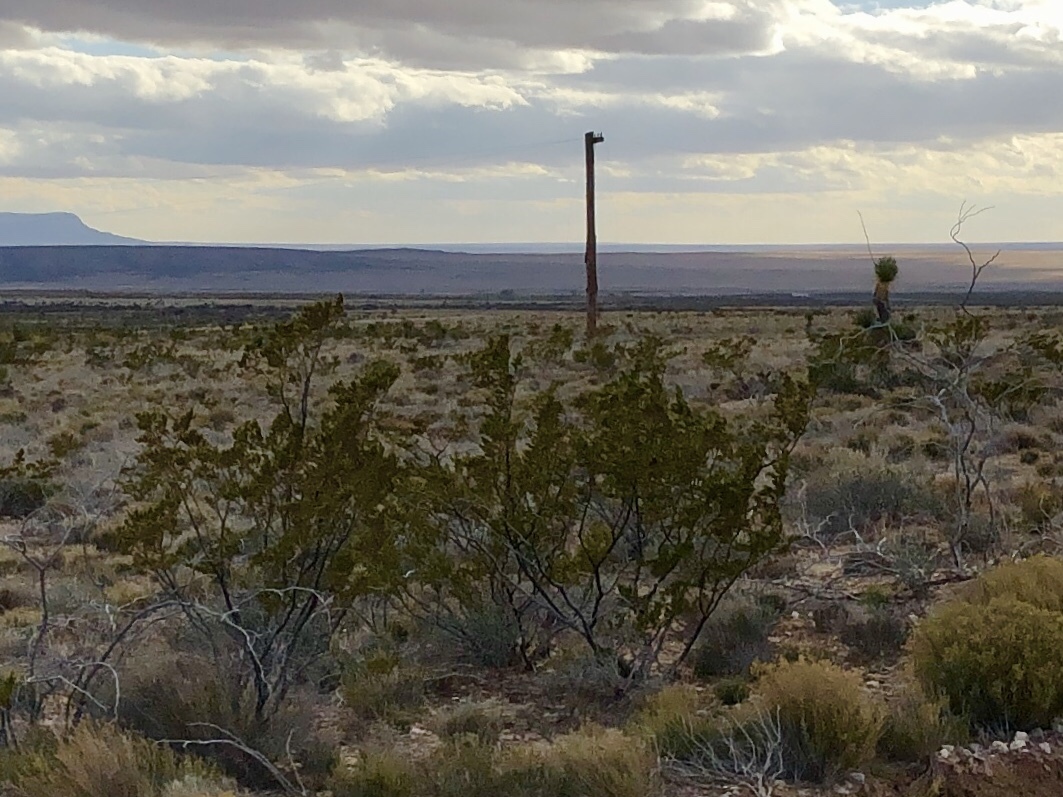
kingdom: Plantae
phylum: Tracheophyta
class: Magnoliopsida
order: Zygophyllales
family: Zygophyllaceae
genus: Larrea
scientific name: Larrea tridentata
